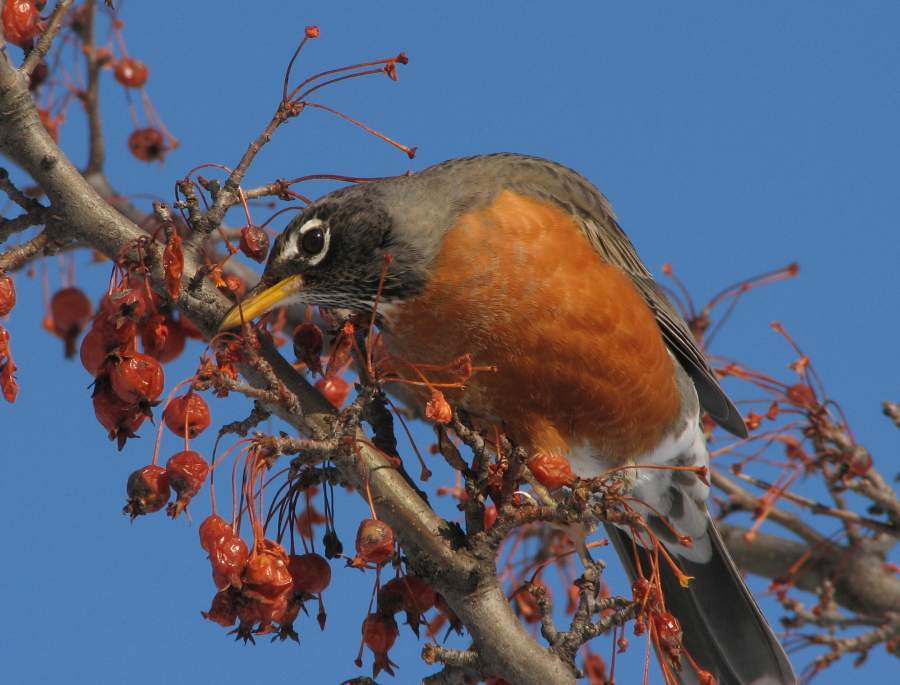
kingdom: Animalia
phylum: Chordata
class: Aves
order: Passeriformes
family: Turdidae
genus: Turdus
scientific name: Turdus migratorius
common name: American robin
